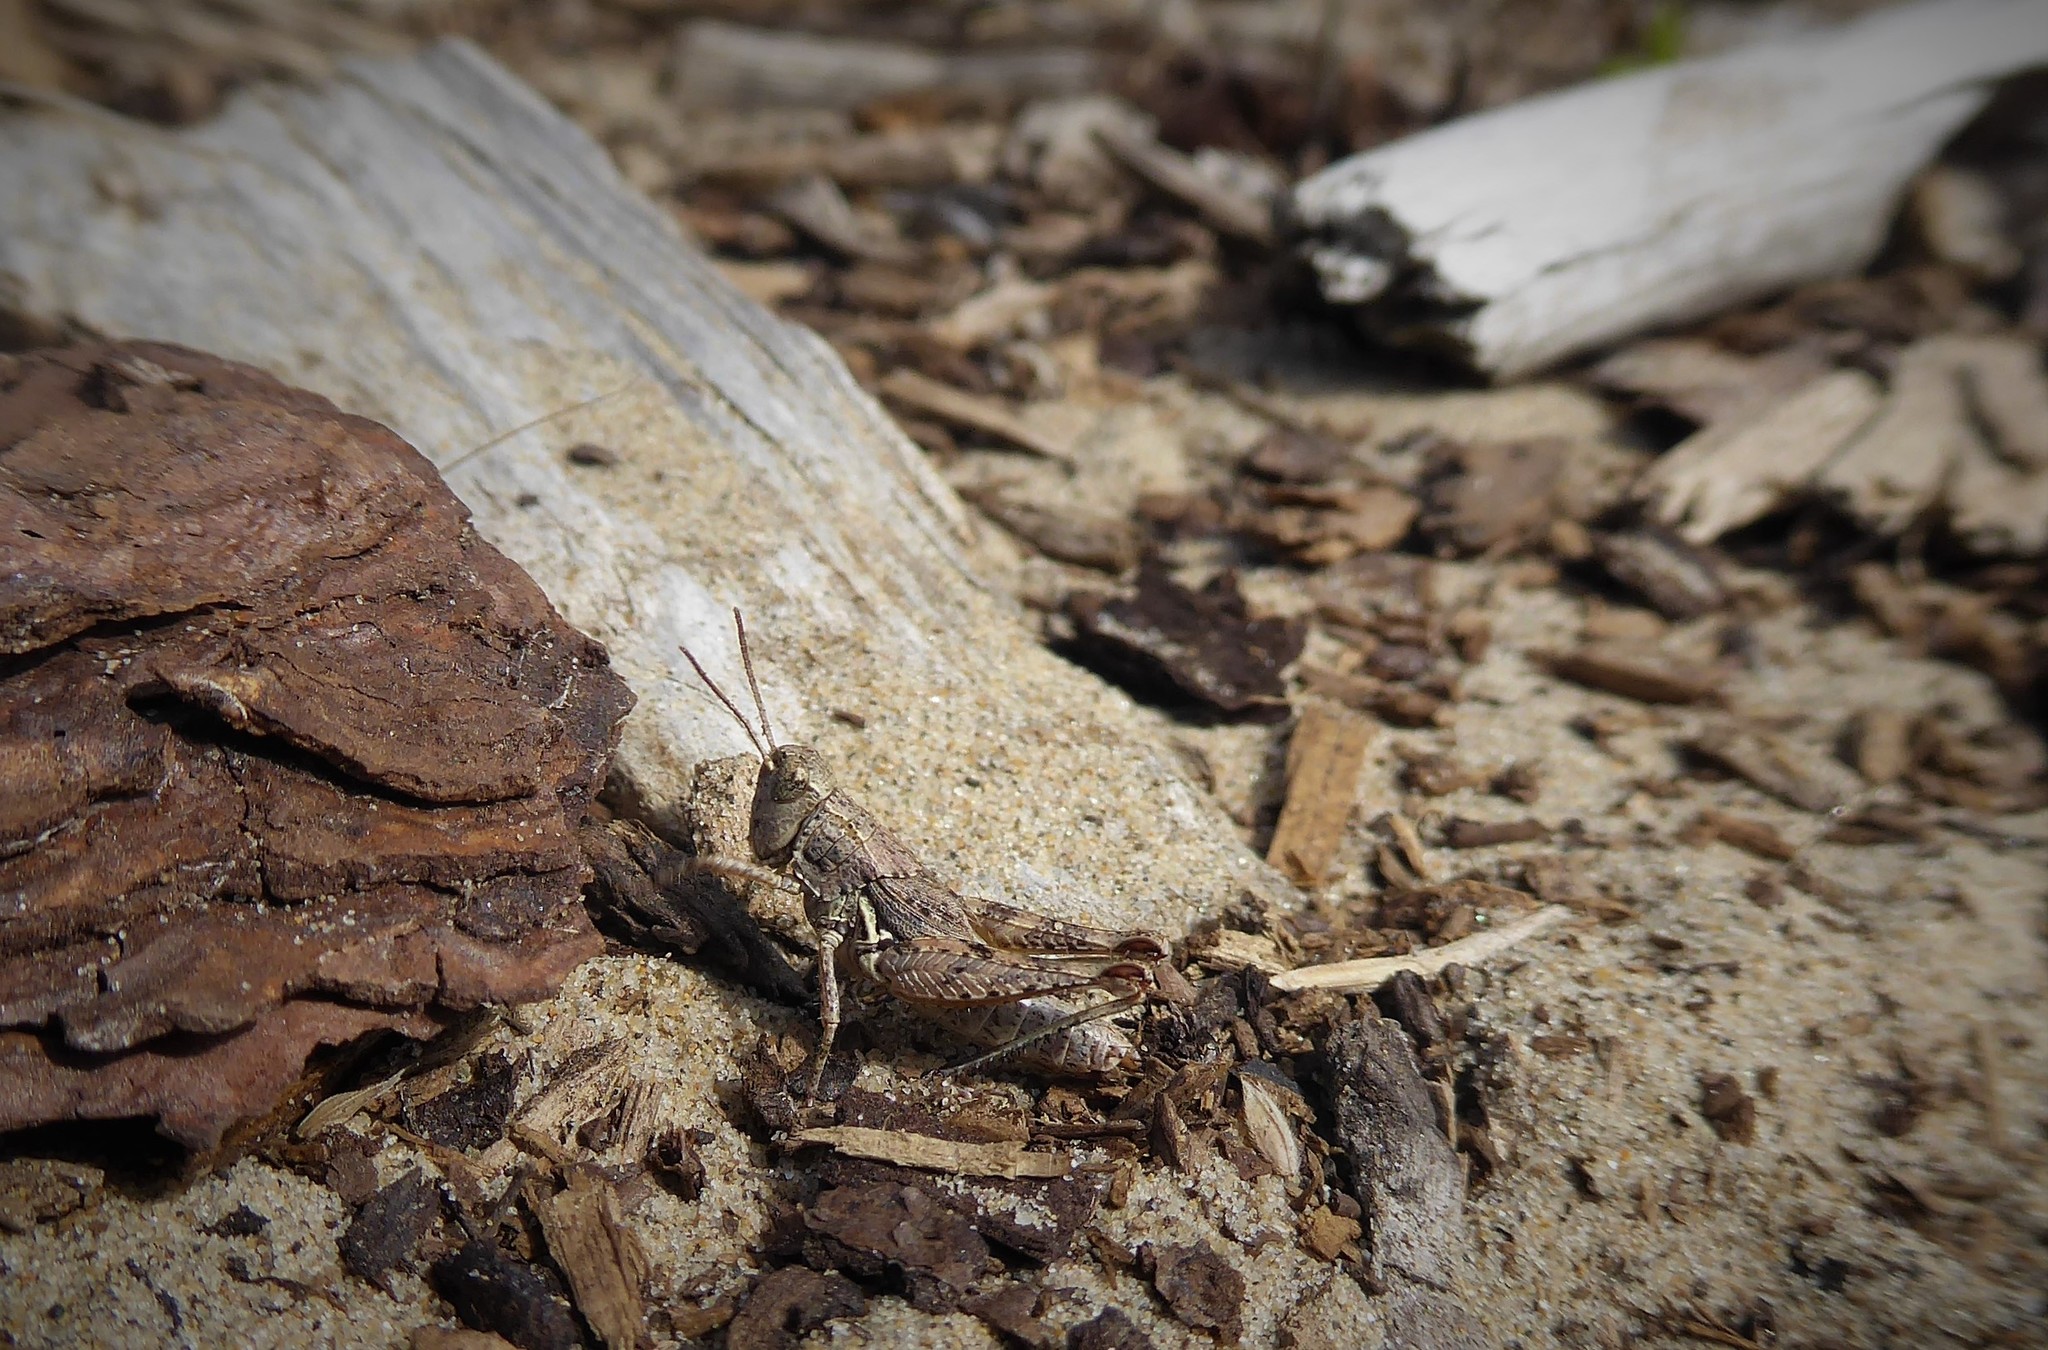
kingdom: Animalia
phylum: Arthropoda
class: Insecta
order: Orthoptera
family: Acrididae
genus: Phaulacridium
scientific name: Phaulacridium marginale
